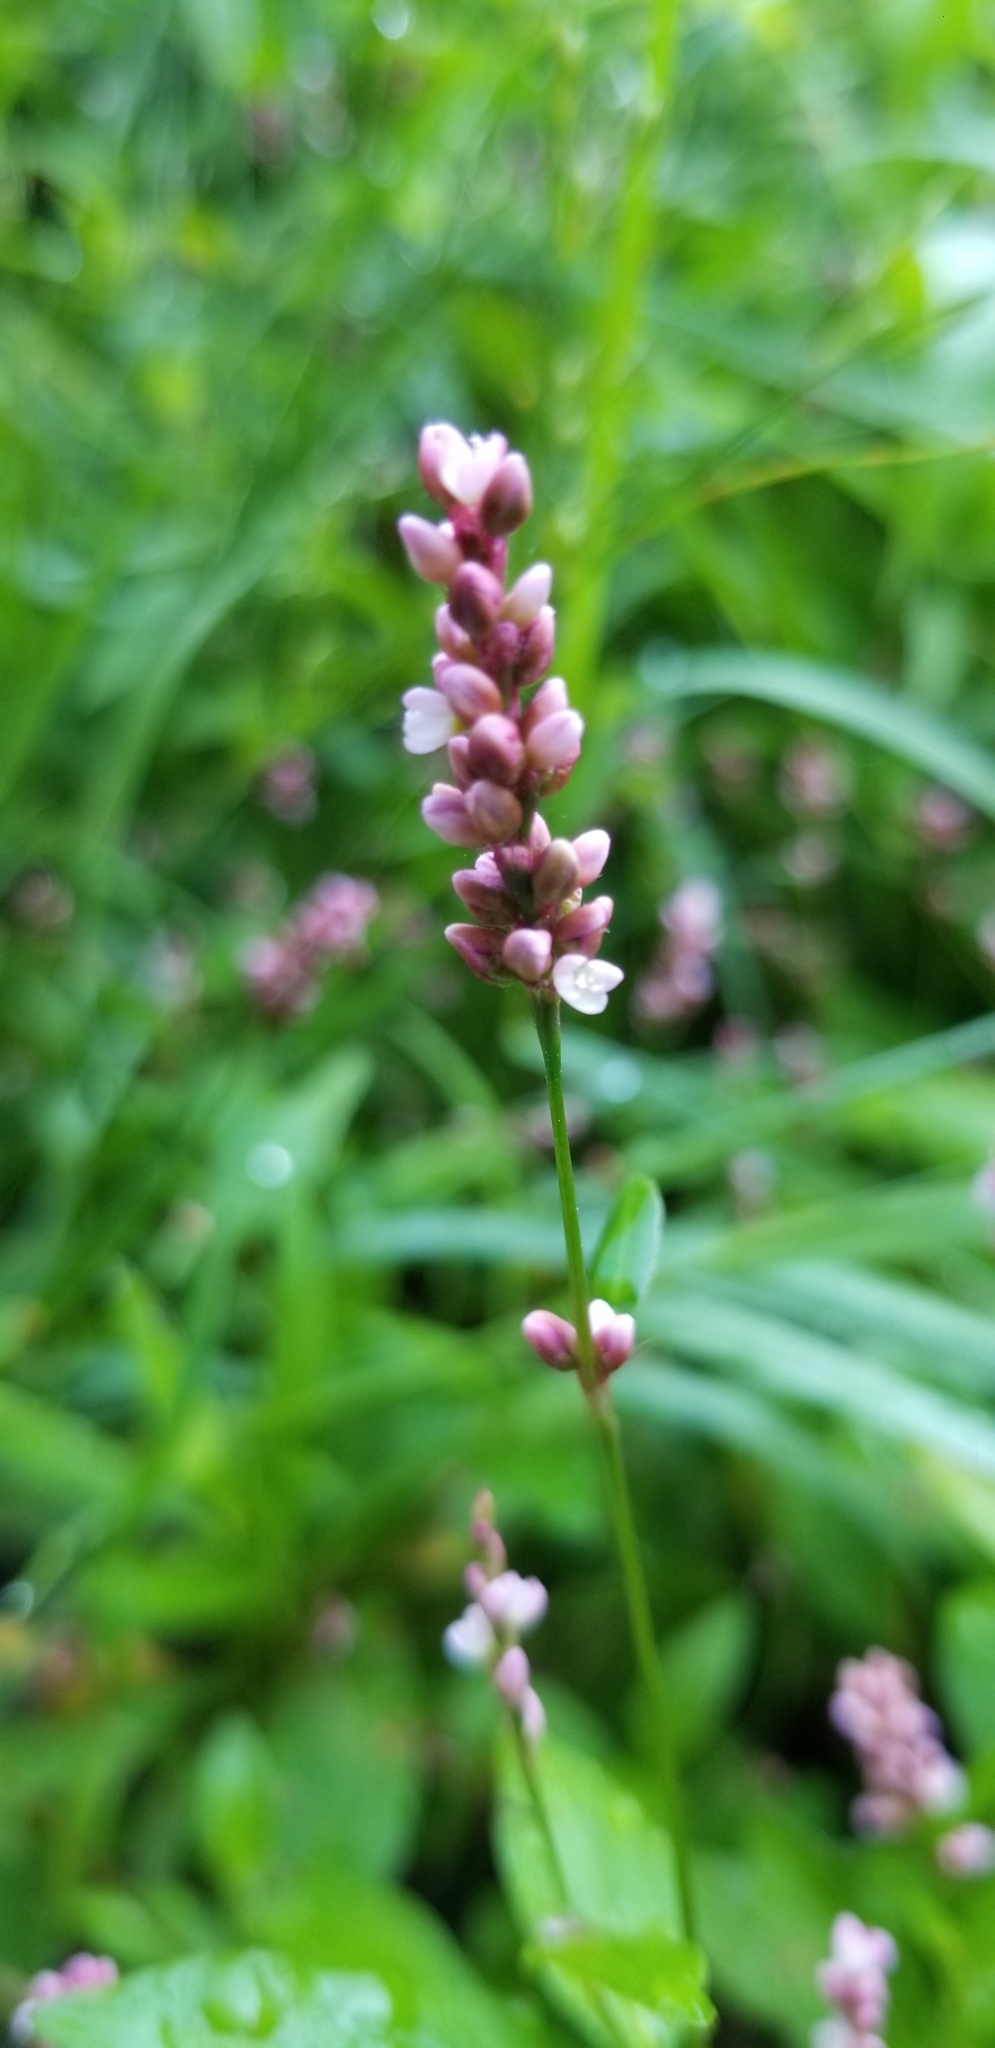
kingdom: Plantae
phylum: Tracheophyta
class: Magnoliopsida
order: Caryophyllales
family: Polygonaceae
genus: Persicaria
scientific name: Persicaria longiseta
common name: Bristly lady's-thumb
